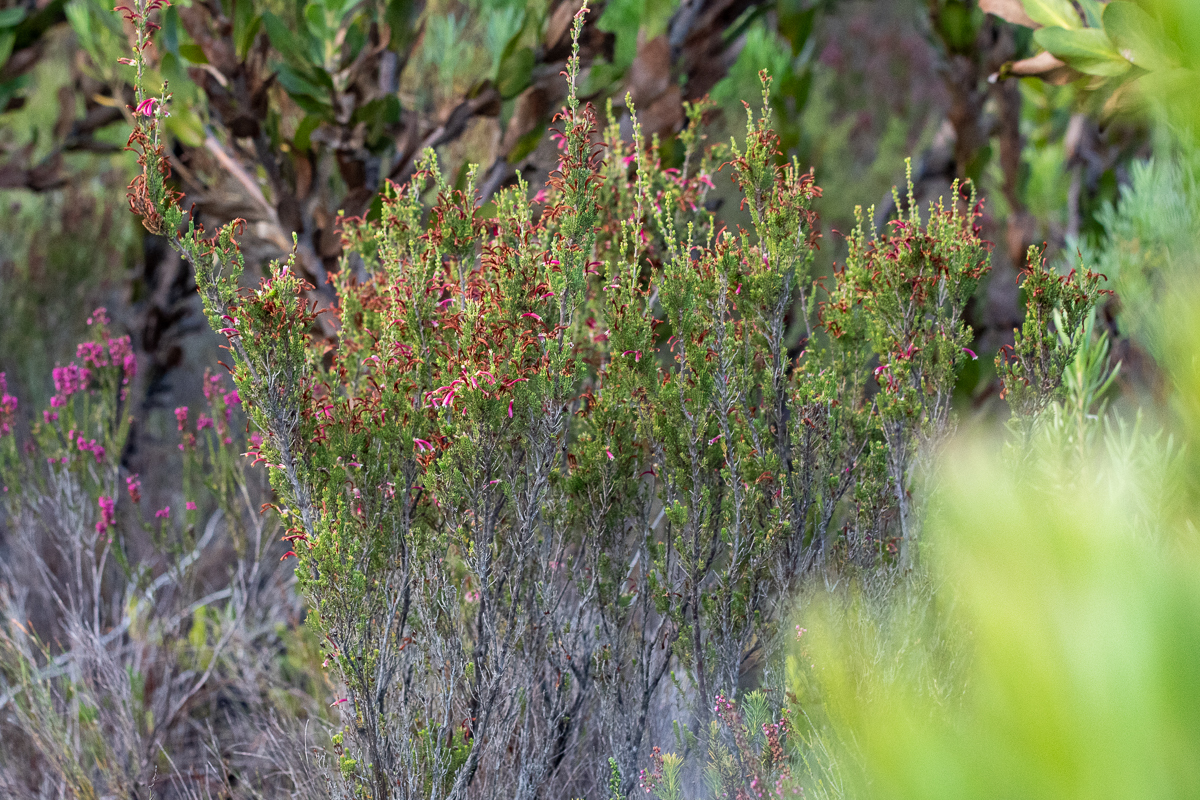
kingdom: Plantae
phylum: Tracheophyta
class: Magnoliopsida
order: Ericales
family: Ericaceae
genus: Erica
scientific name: Erica discolor
